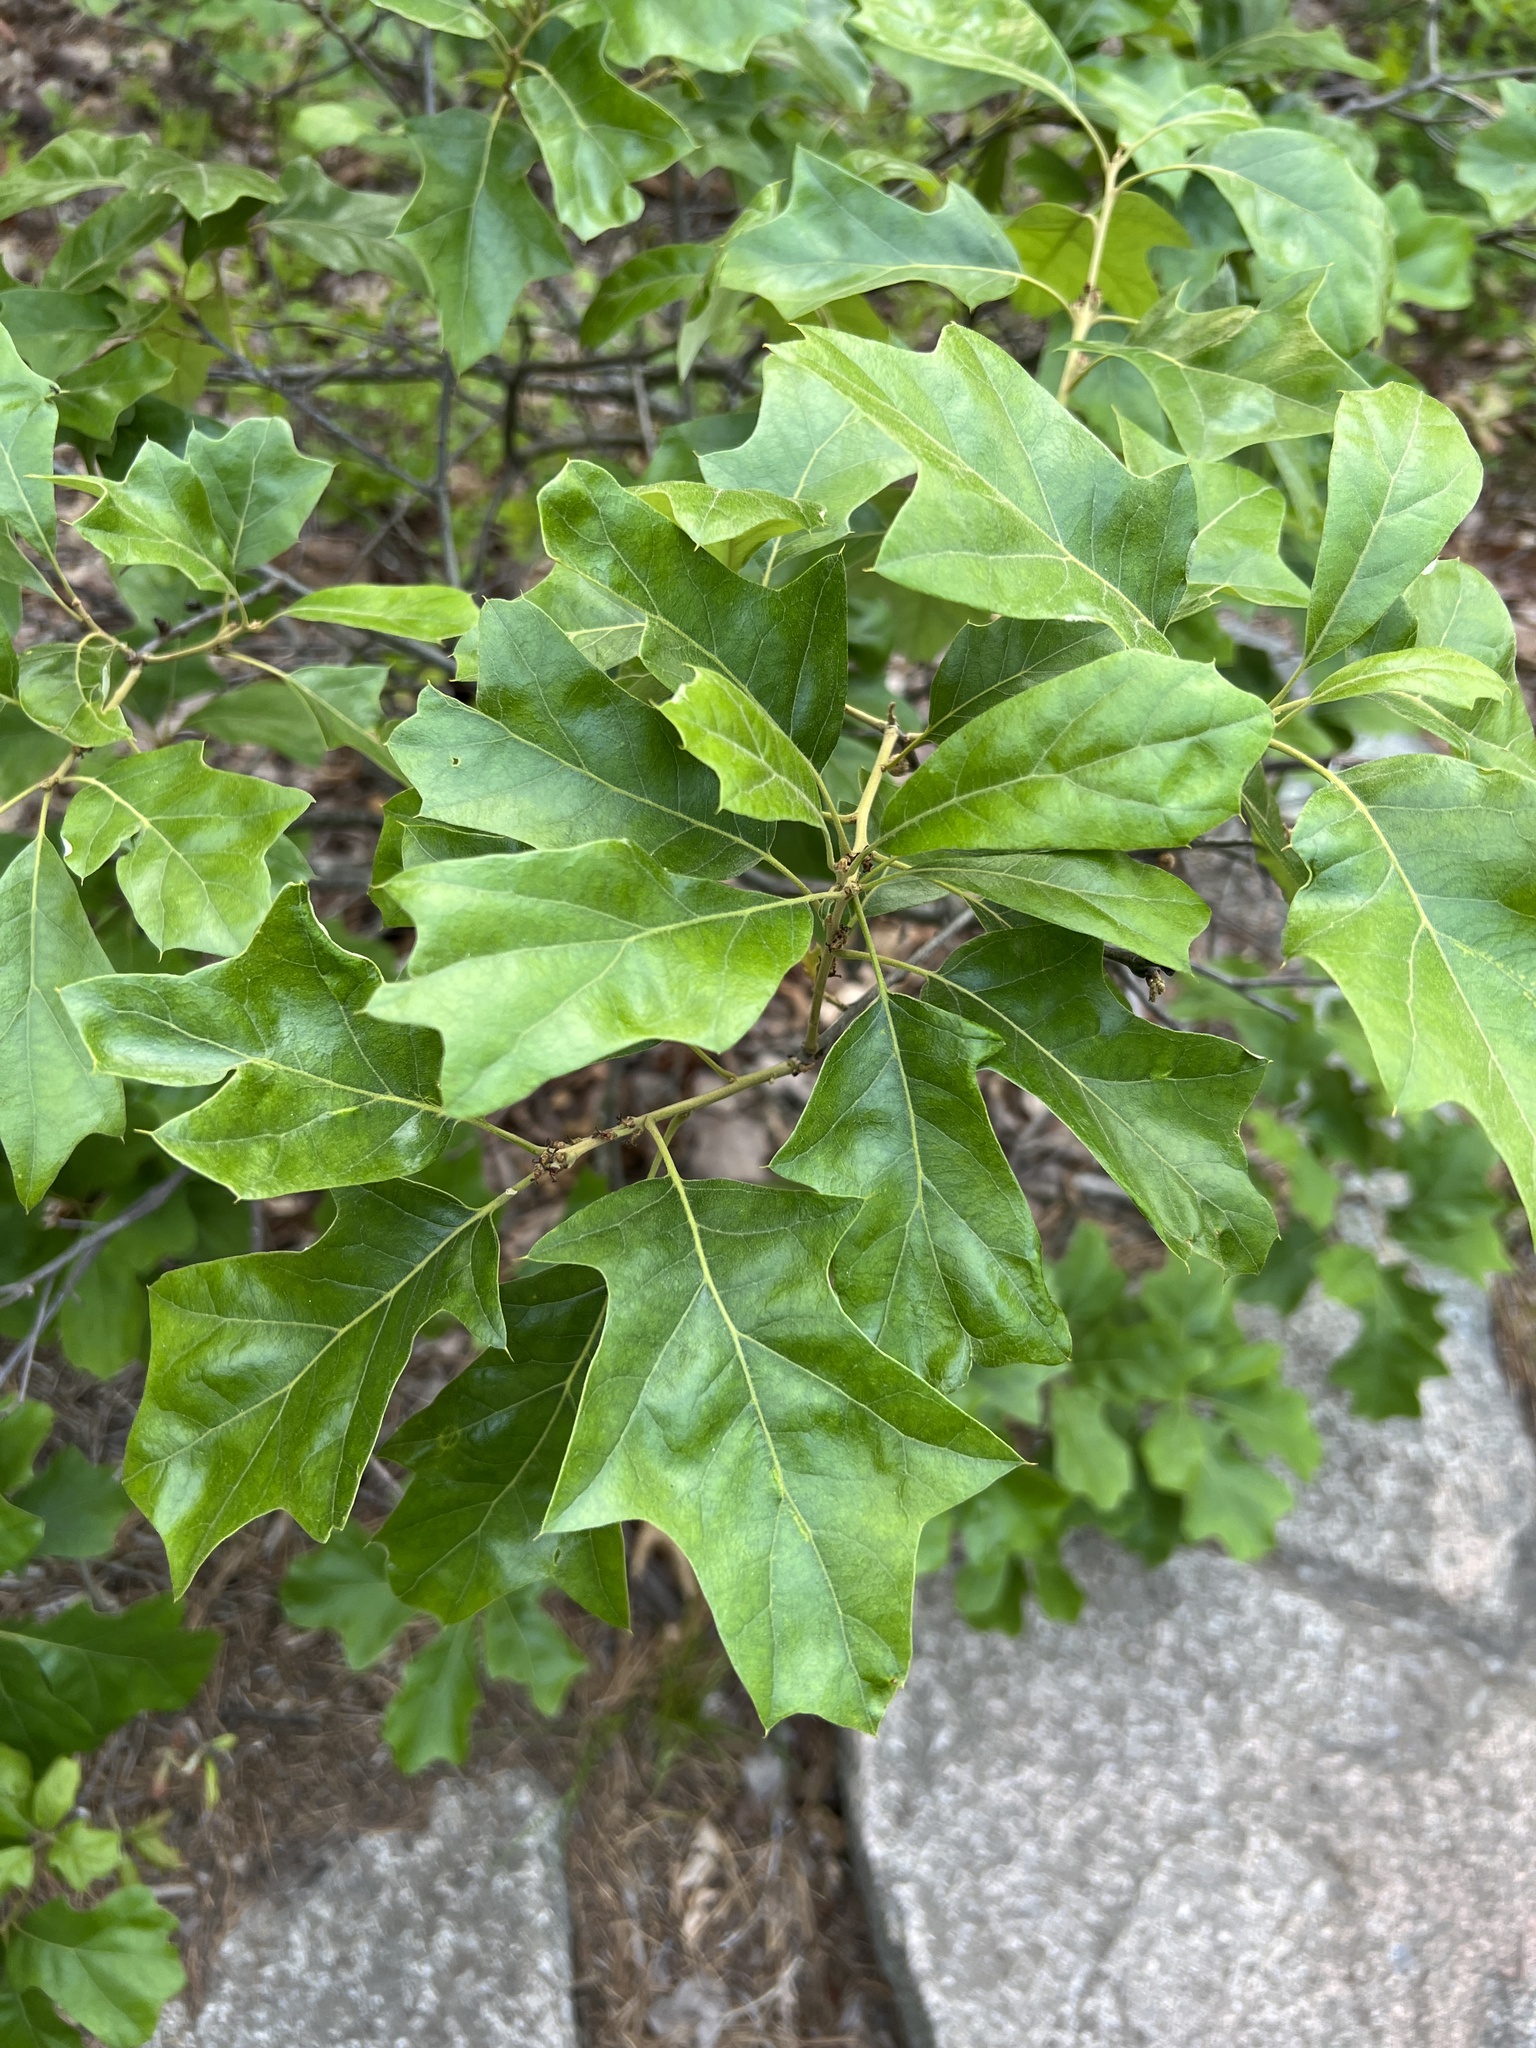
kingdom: Plantae
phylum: Tracheophyta
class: Magnoliopsida
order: Fagales
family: Fagaceae
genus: Quercus
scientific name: Quercus ilicifolia
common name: Bear oak
